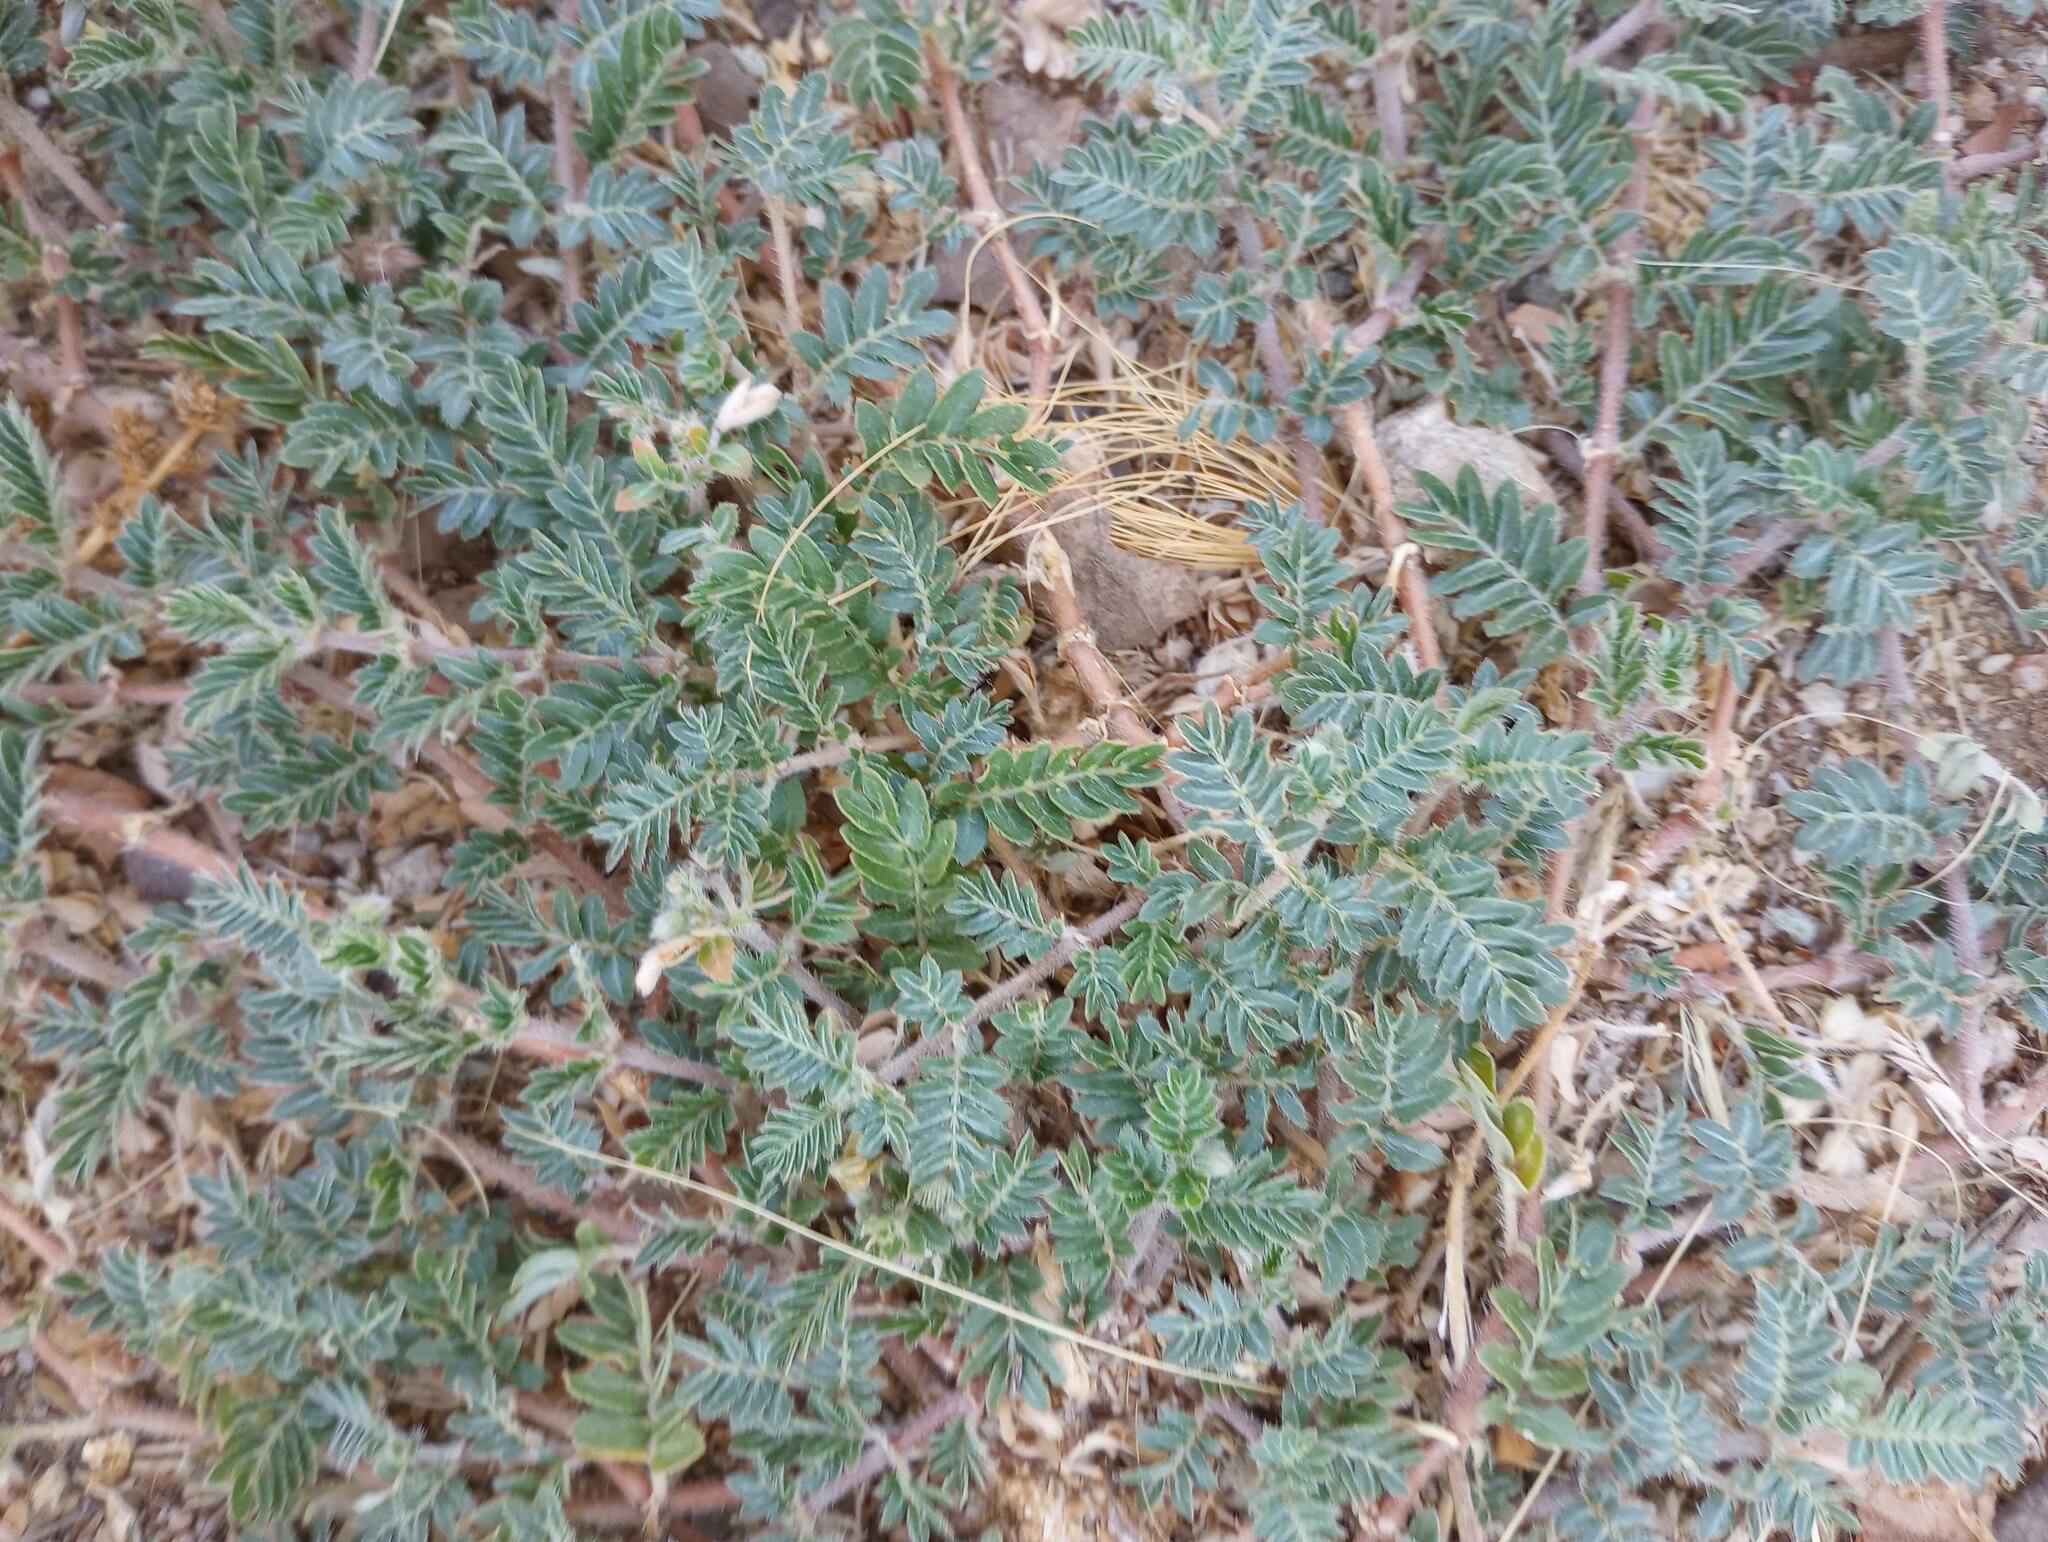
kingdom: Plantae
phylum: Tracheophyta
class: Magnoliopsida
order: Zygophyllales
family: Zygophyllaceae
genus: Tribulus
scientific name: Tribulus terrestris
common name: Puncturevine
